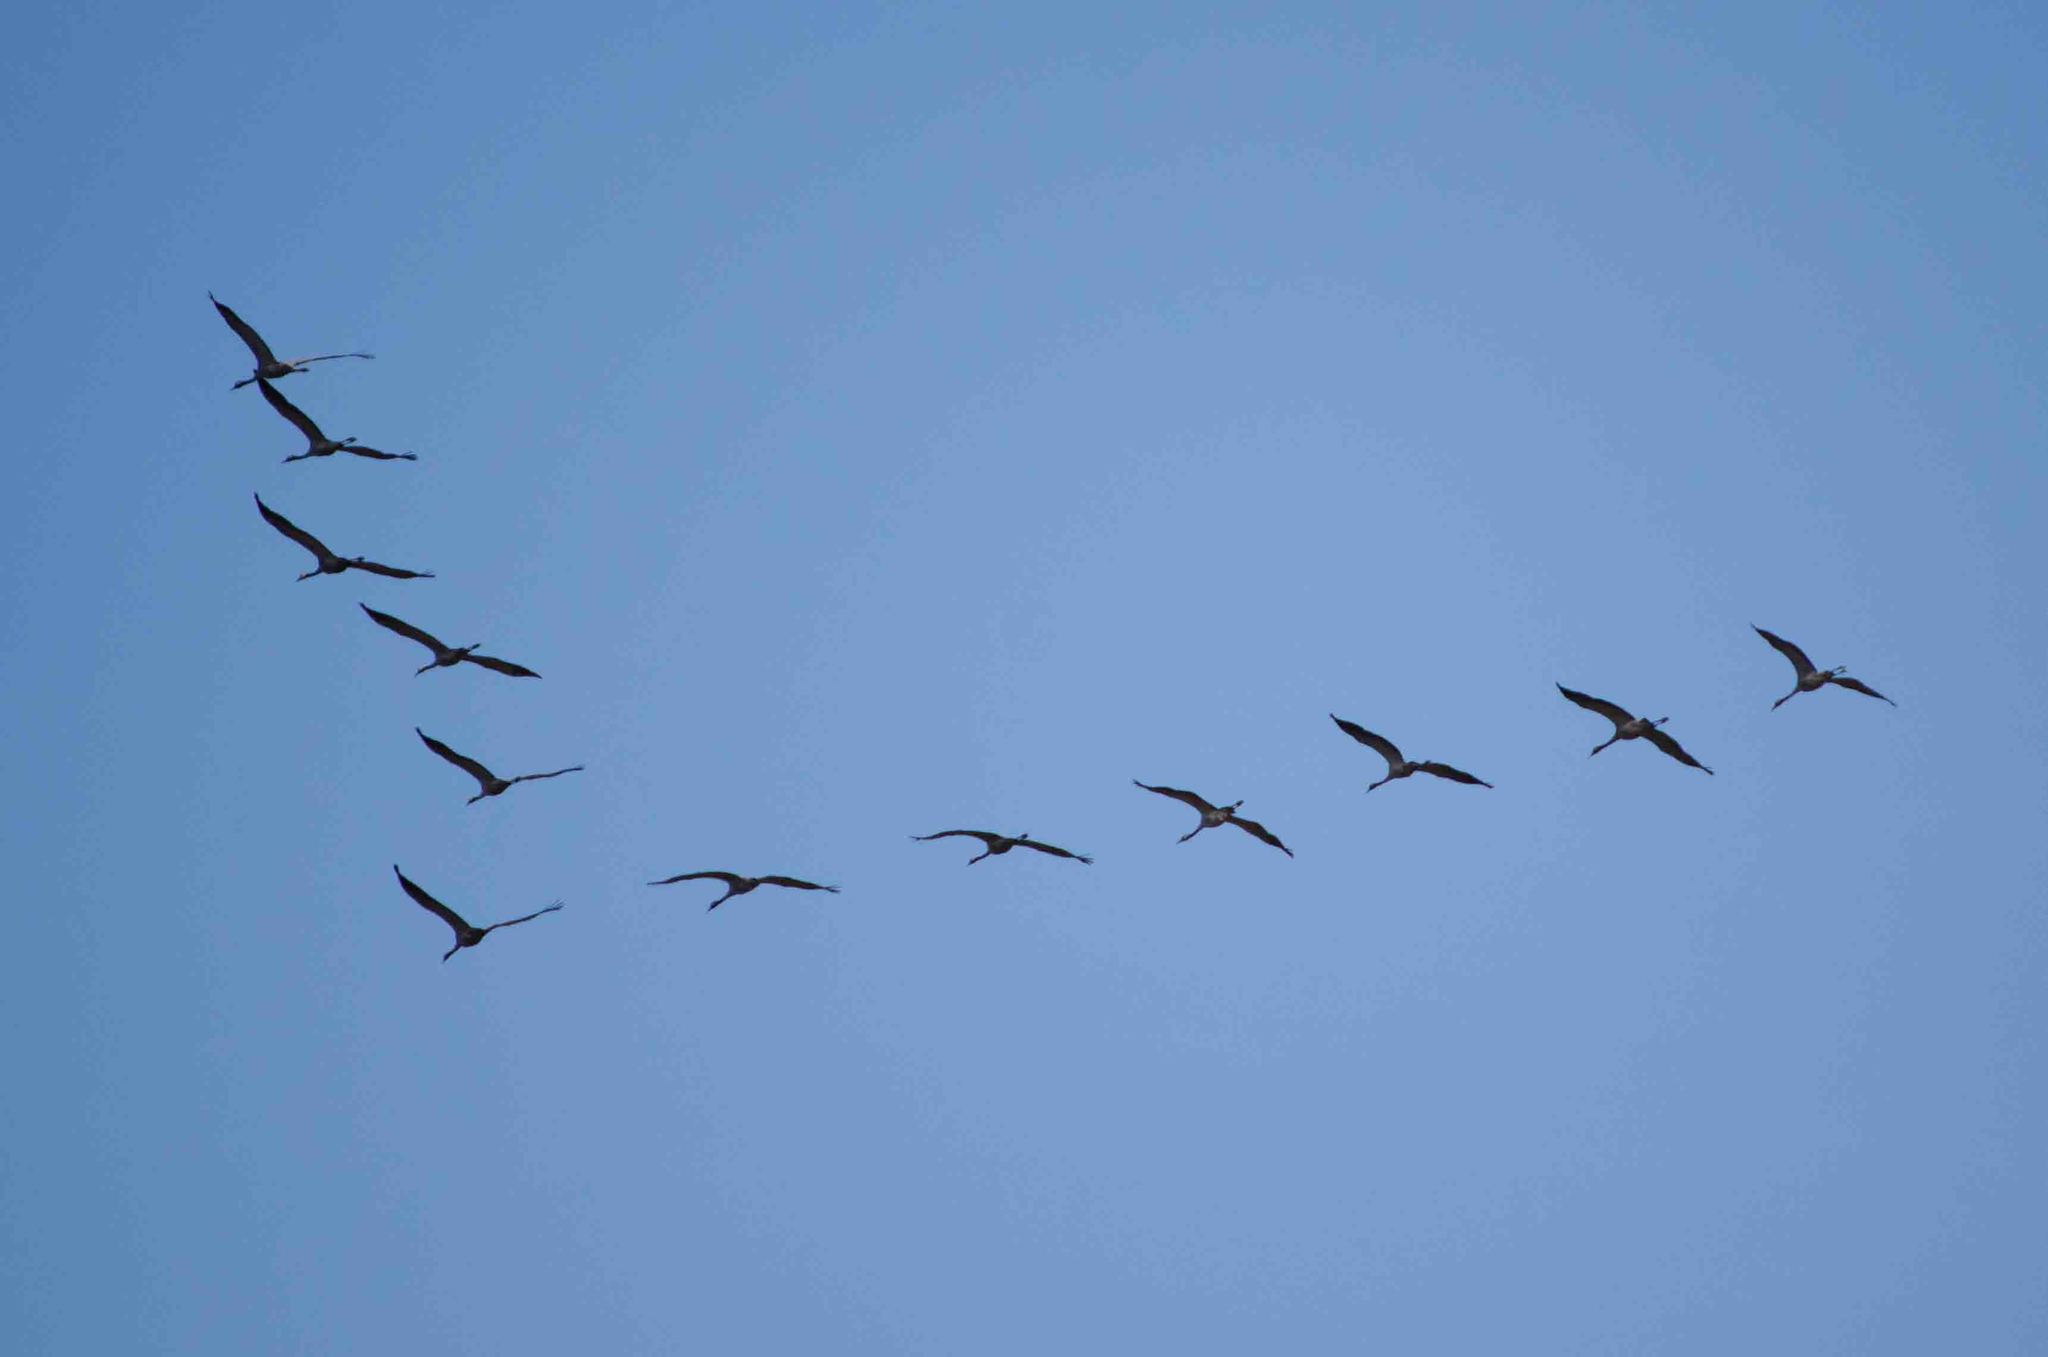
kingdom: Animalia
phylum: Chordata
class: Aves
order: Gruiformes
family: Gruidae
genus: Grus
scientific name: Grus grus
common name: Common crane
